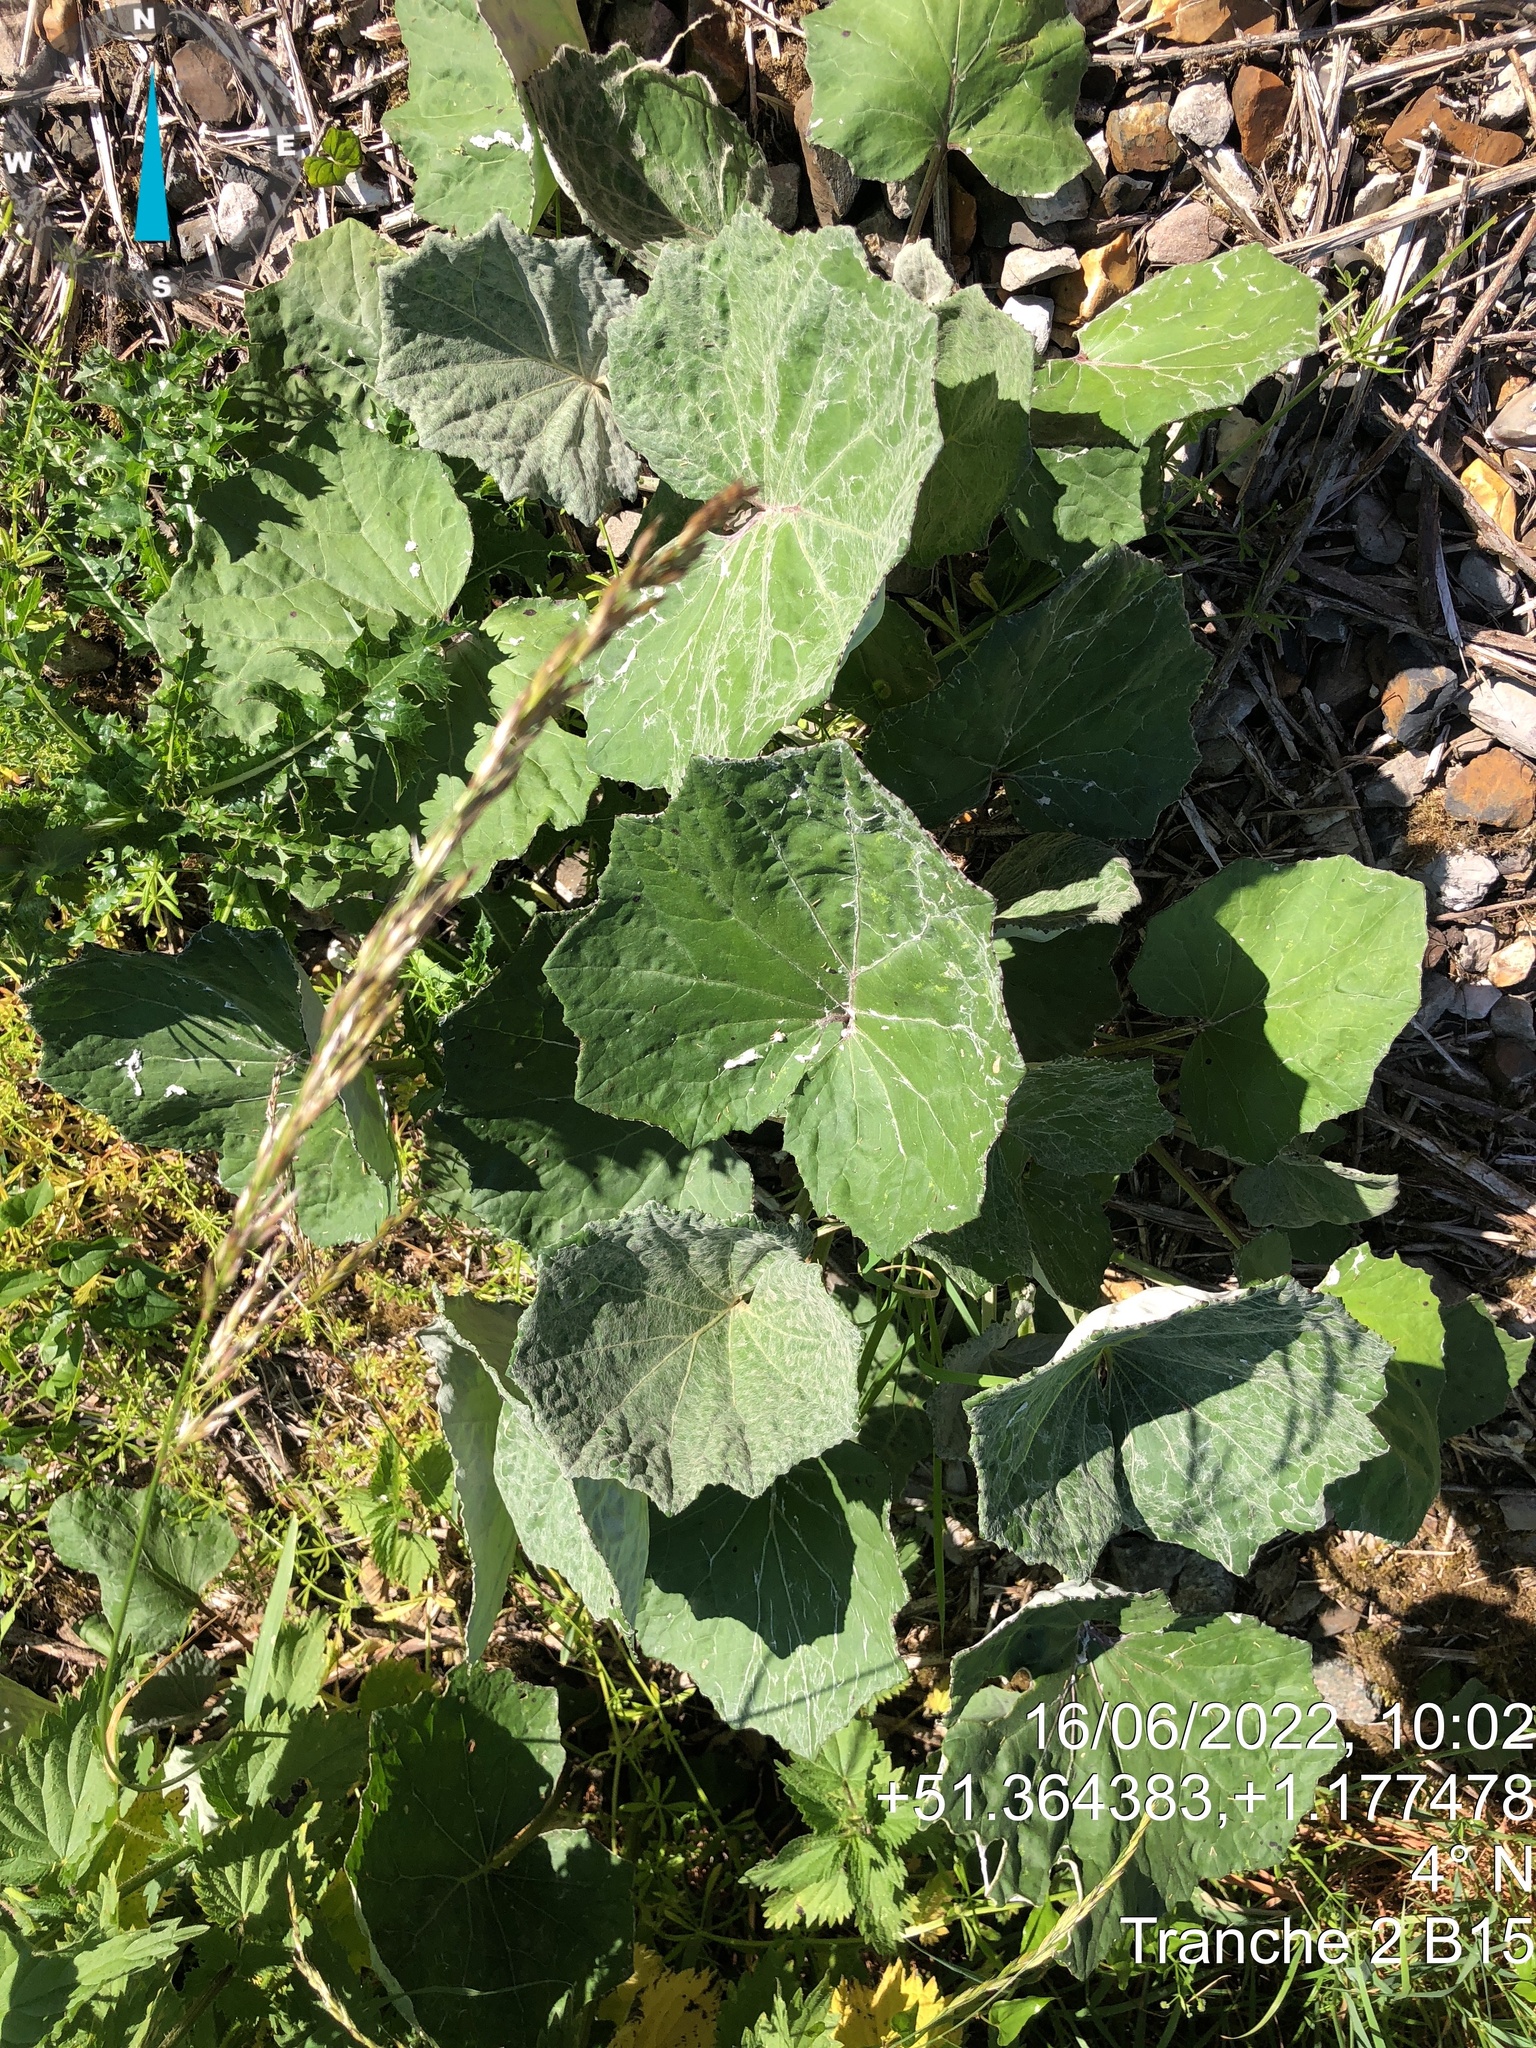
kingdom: Plantae
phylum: Tracheophyta
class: Magnoliopsida
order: Asterales
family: Asteraceae
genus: Tussilago
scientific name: Tussilago farfara
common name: Coltsfoot
